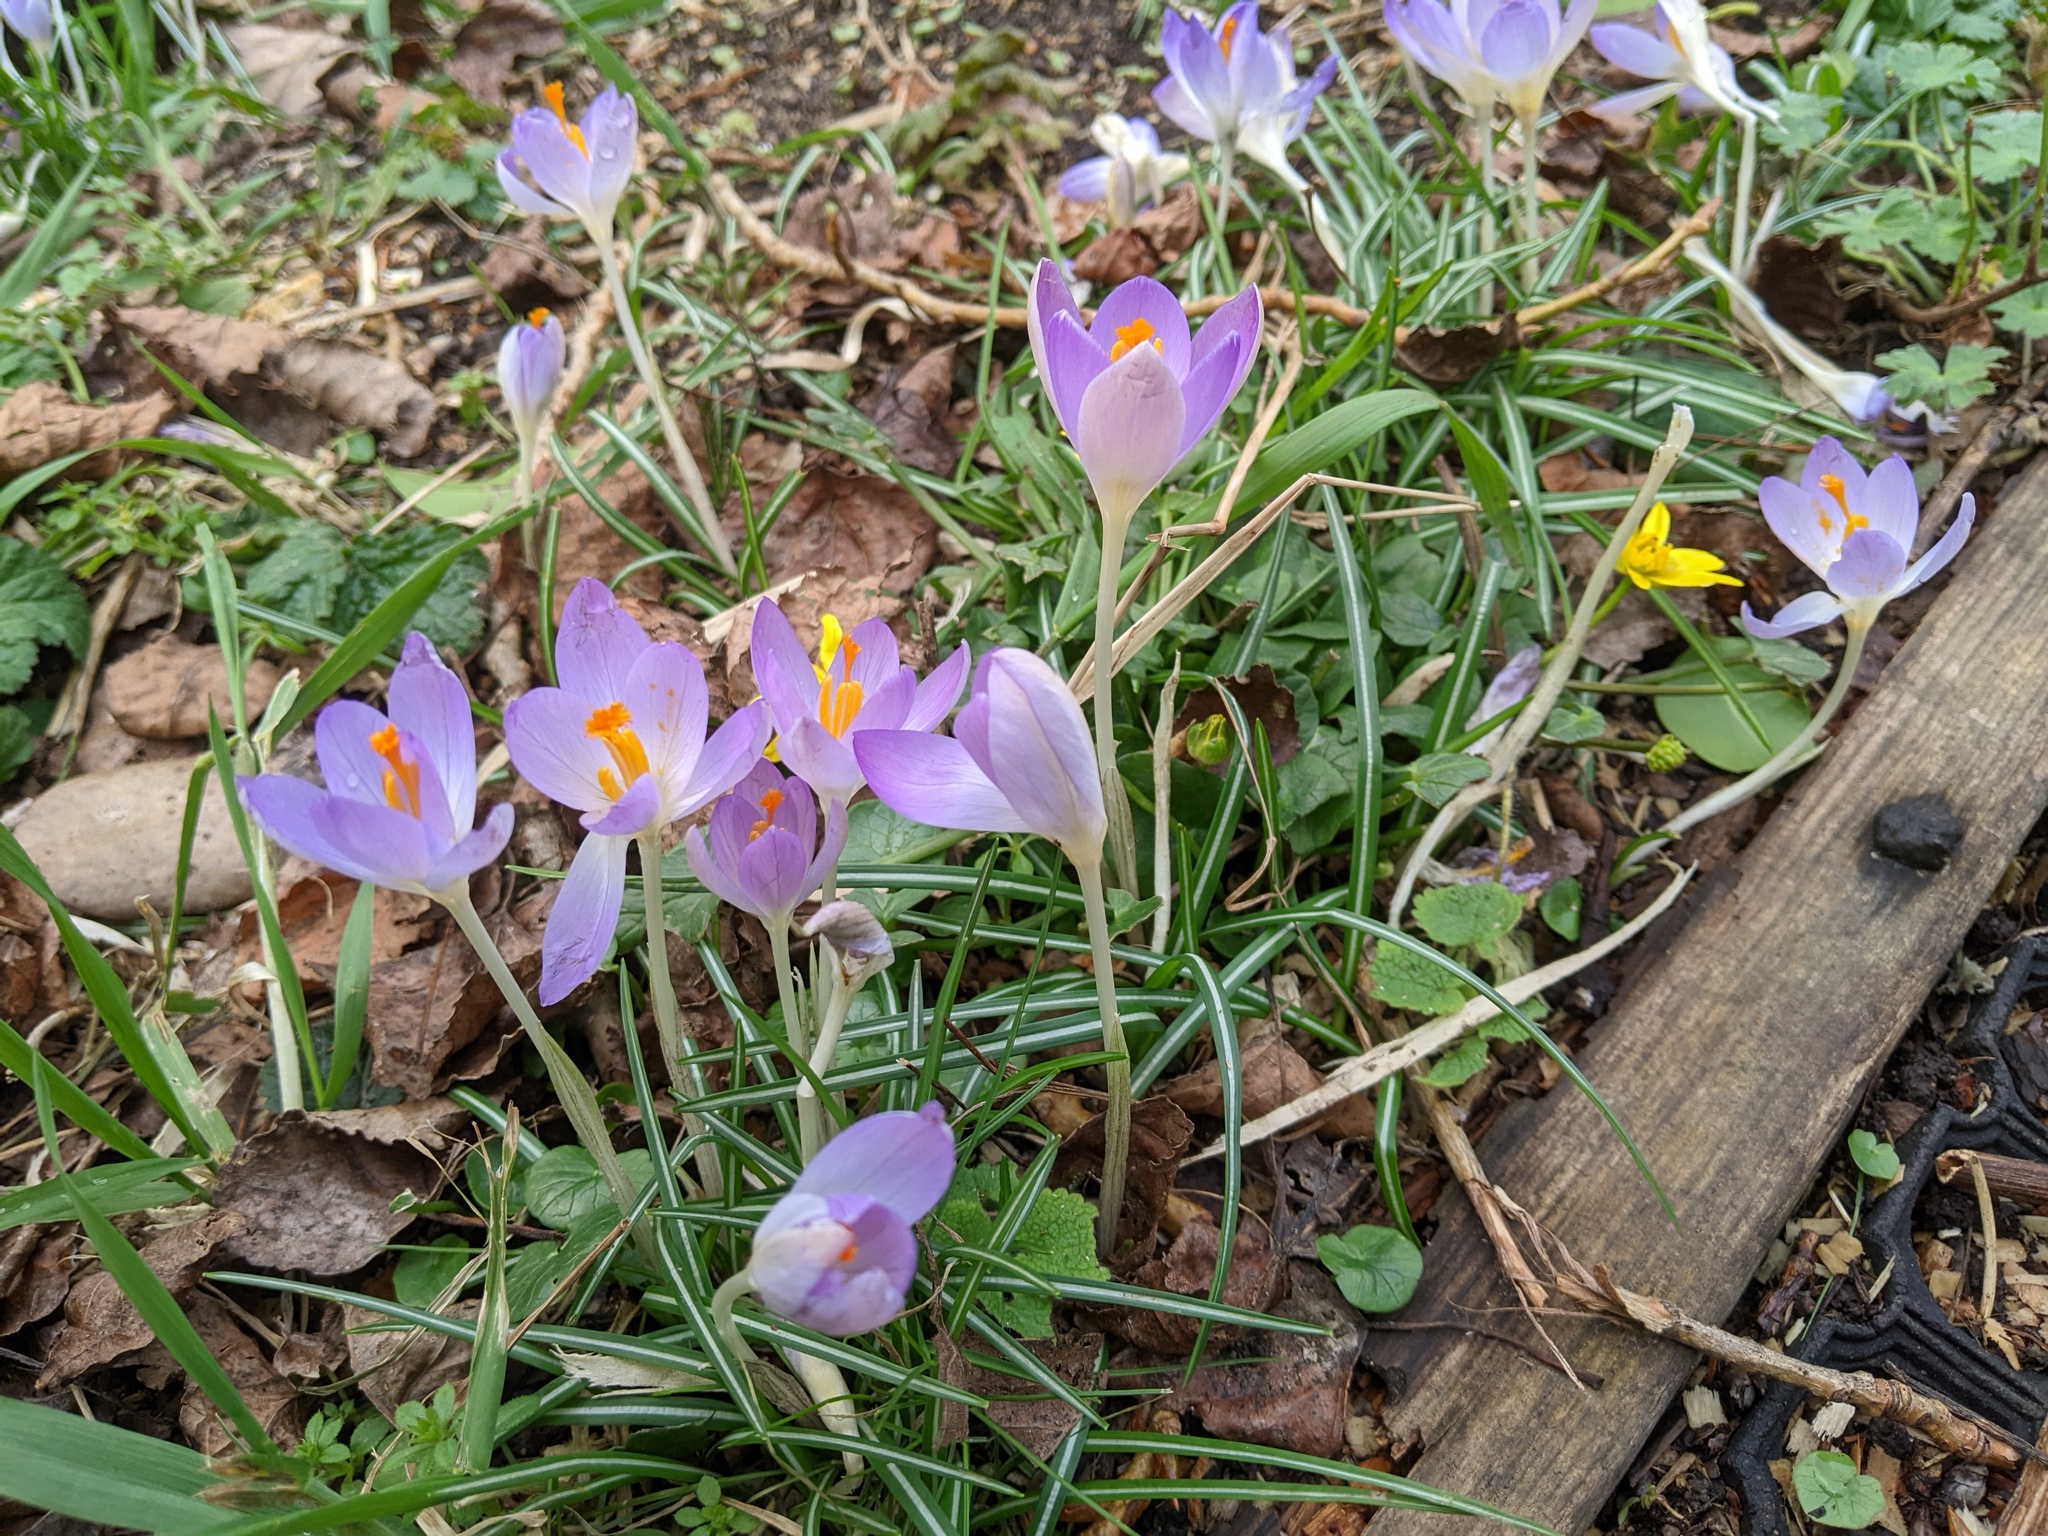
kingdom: Plantae
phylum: Tracheophyta
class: Liliopsida
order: Asparagales
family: Iridaceae
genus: Crocus
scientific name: Crocus tommasinianus
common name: Early crocus
